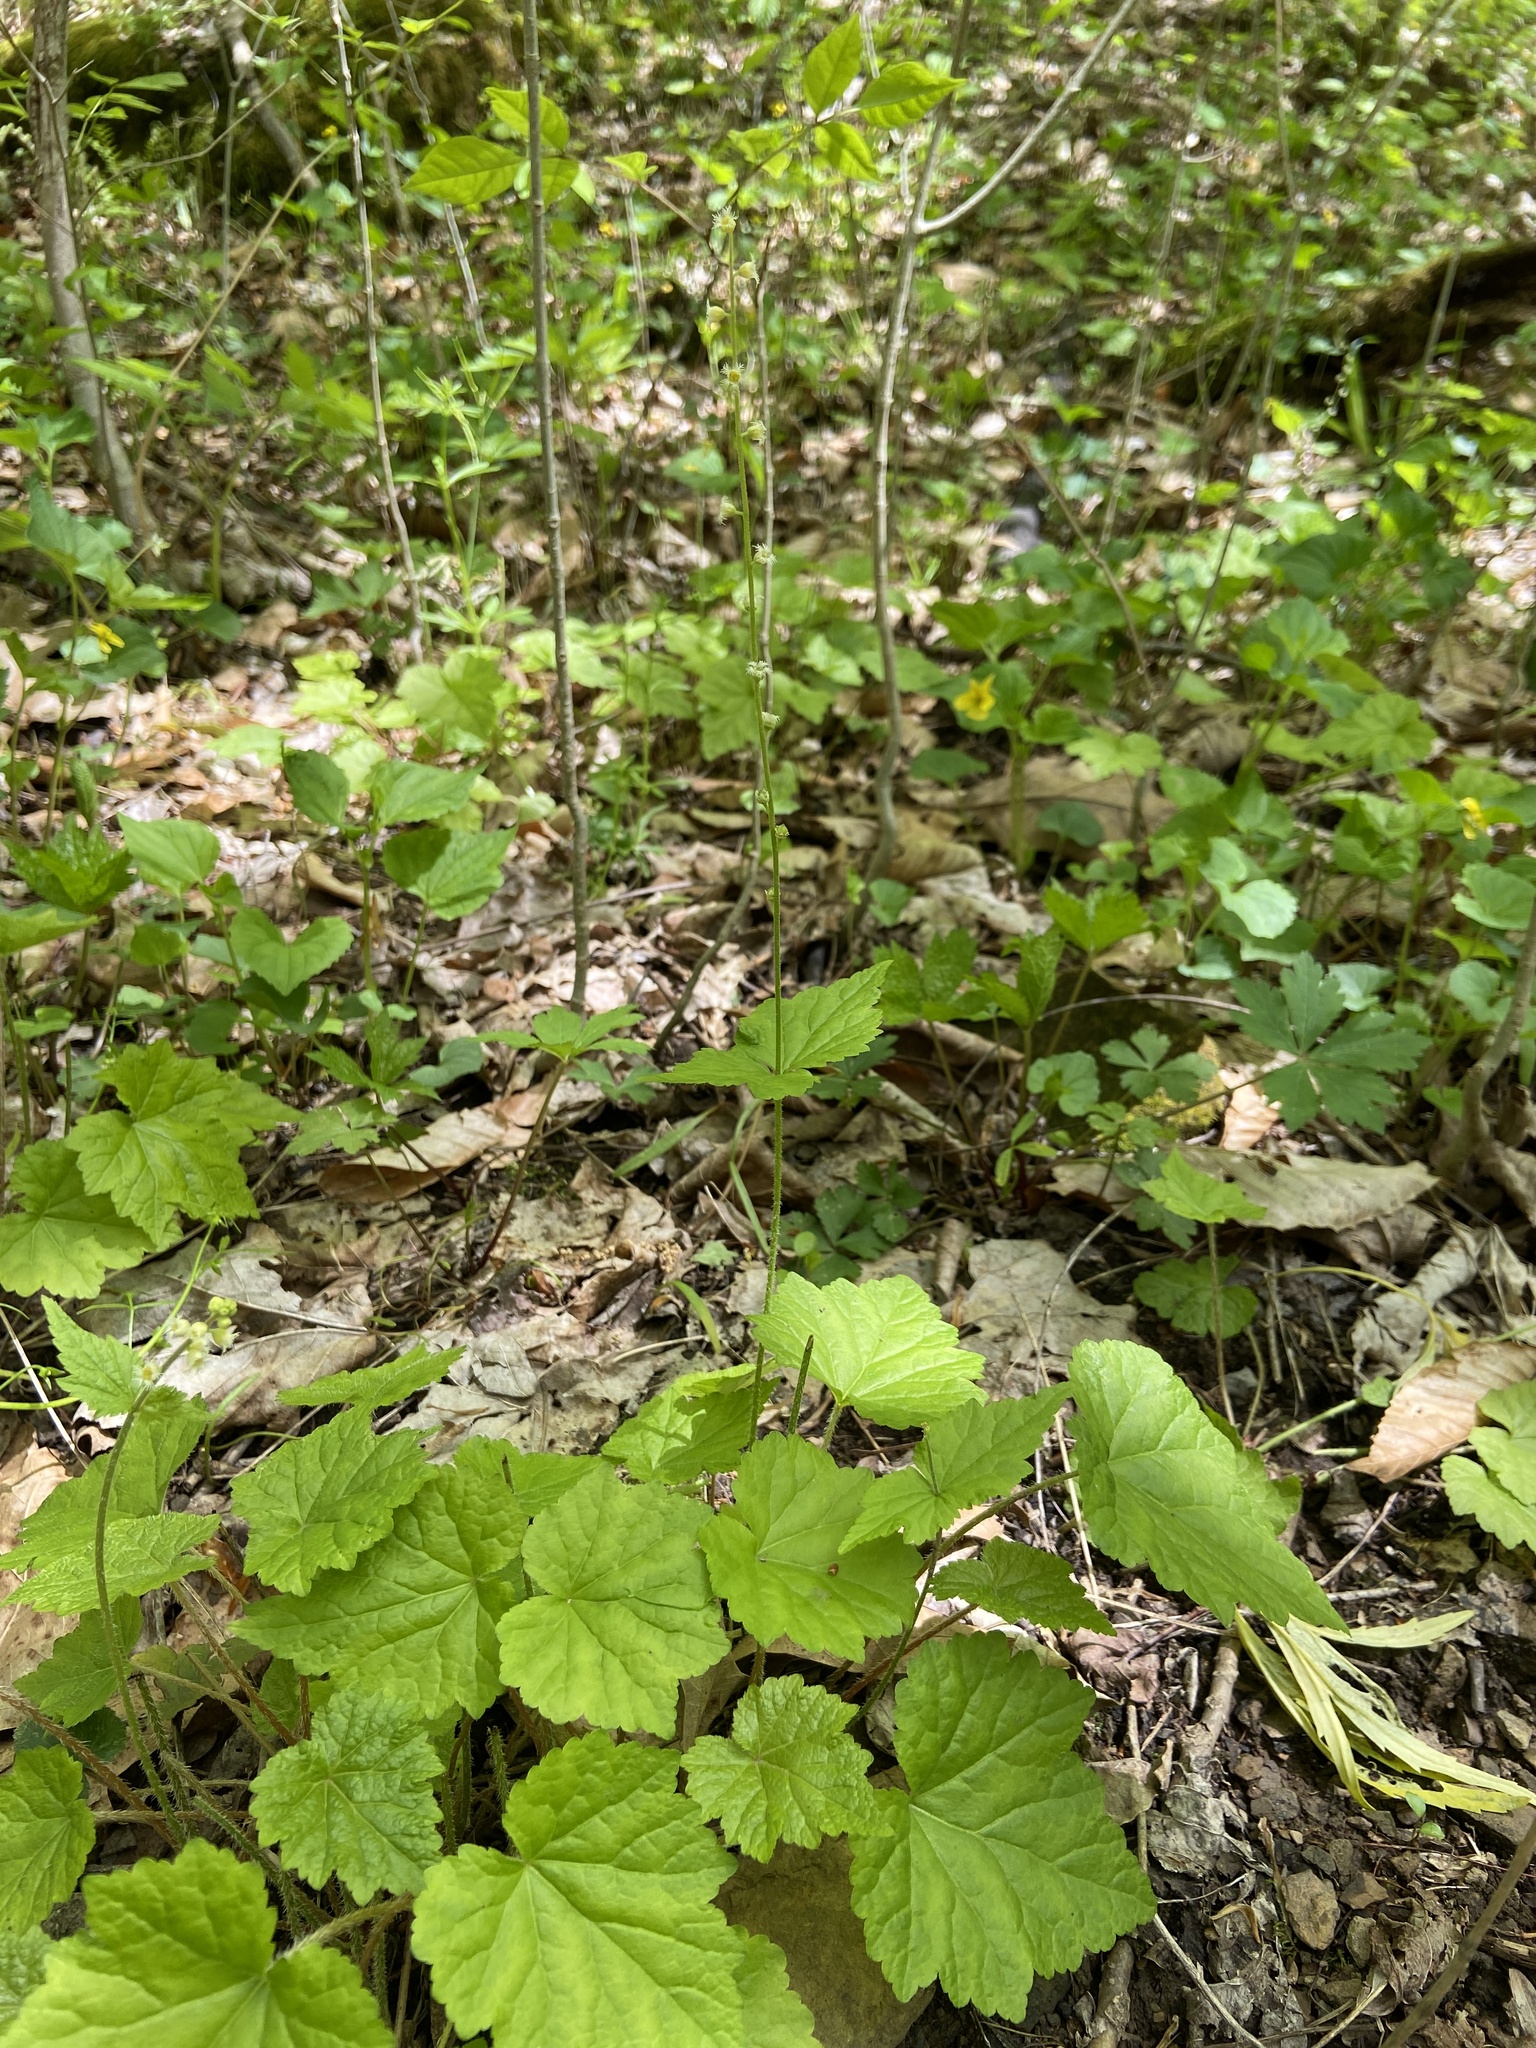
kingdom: Plantae
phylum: Tracheophyta
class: Magnoliopsida
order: Saxifragales
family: Saxifragaceae
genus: Mitella
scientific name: Mitella diphylla
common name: Coolwort
